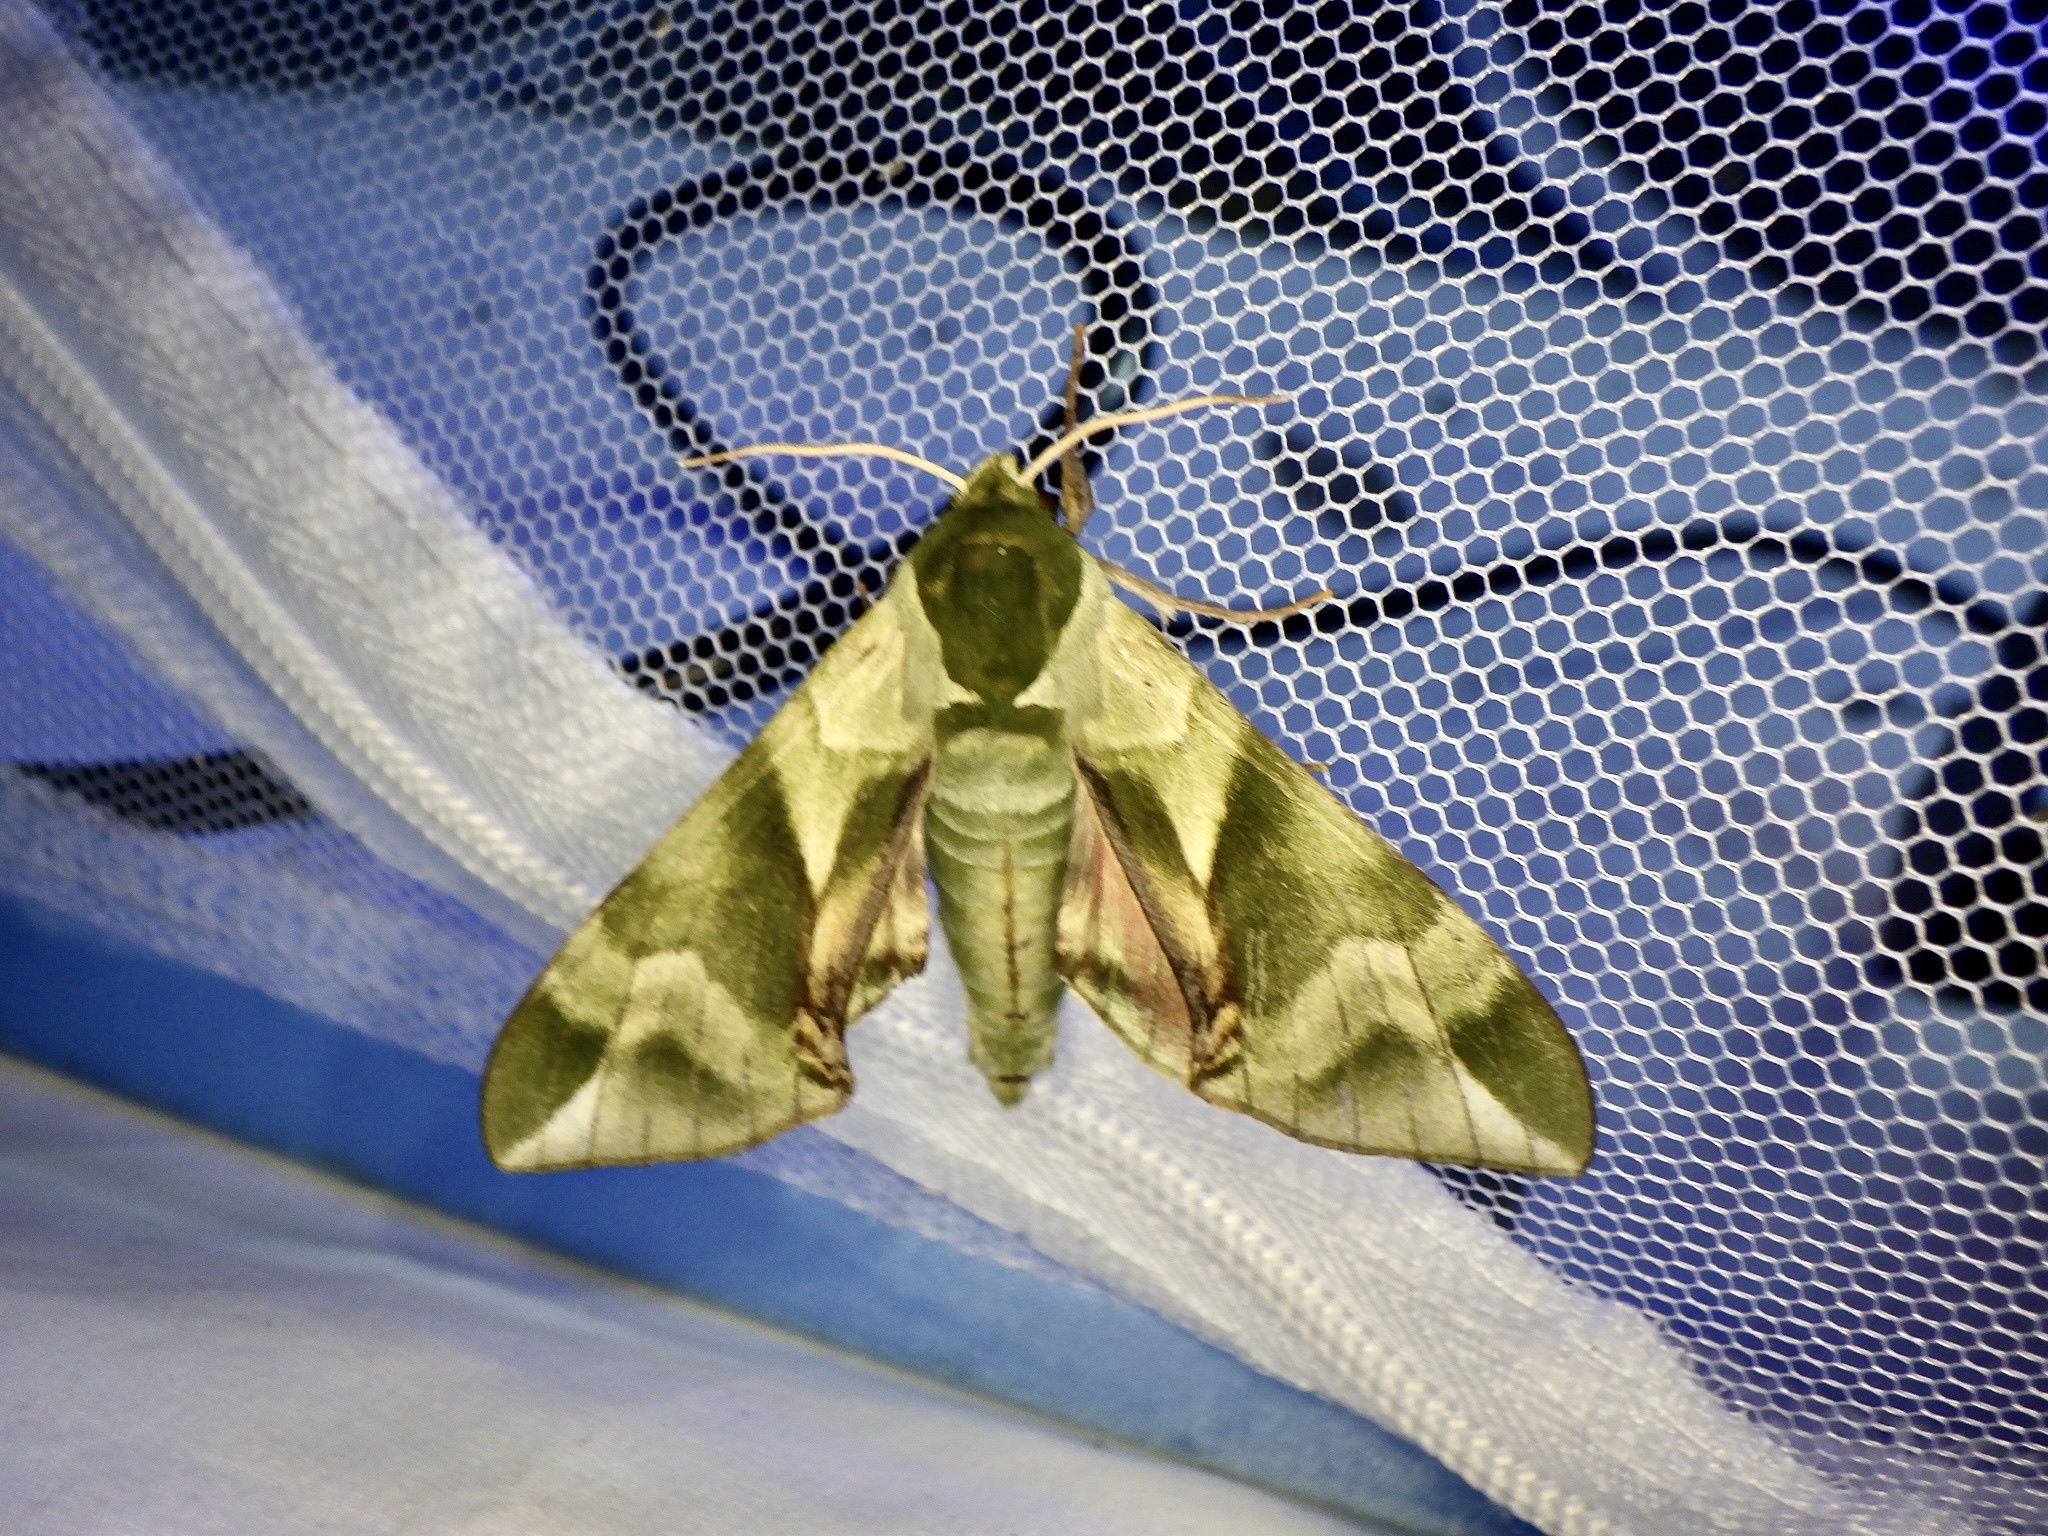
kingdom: Animalia
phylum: Arthropoda
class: Insecta
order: Lepidoptera
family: Sphingidae
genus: Callambulyx
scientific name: Callambulyx tatarinovii
